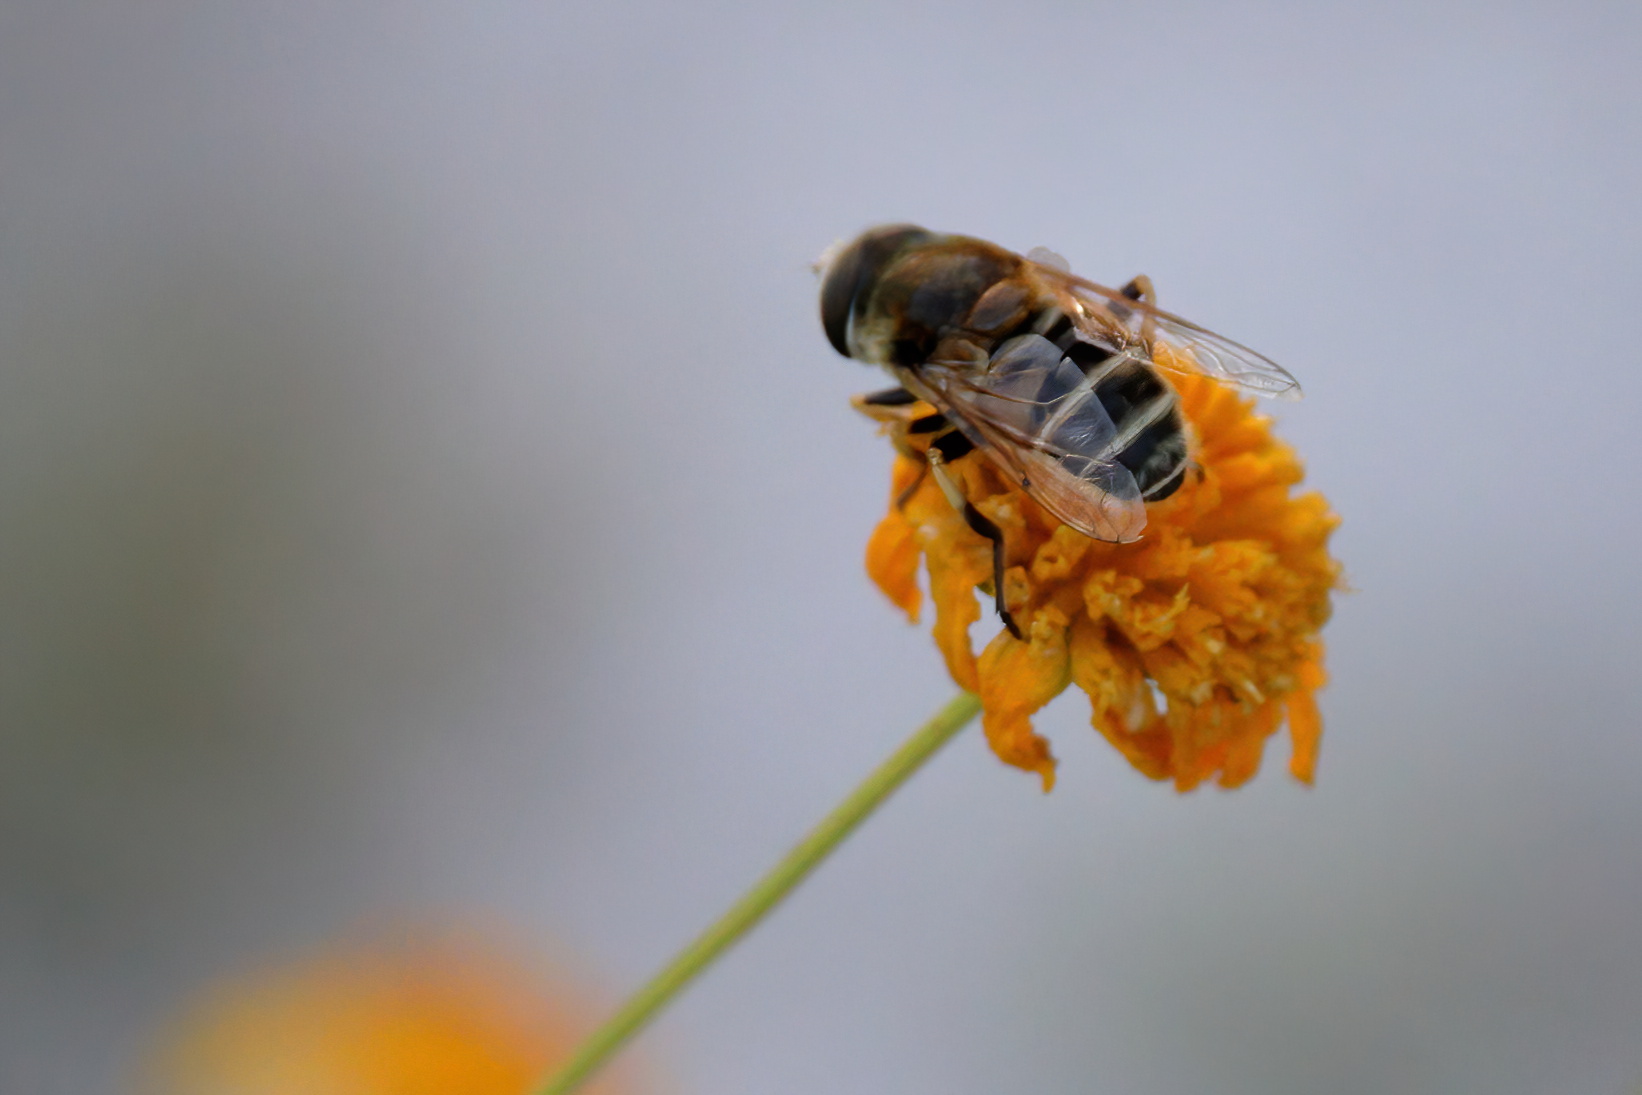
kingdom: Animalia
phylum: Arthropoda
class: Insecta
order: Diptera
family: Syrphidae
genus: Eristalis
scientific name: Eristalis stipator
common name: Yellow-shouldered drone fly
